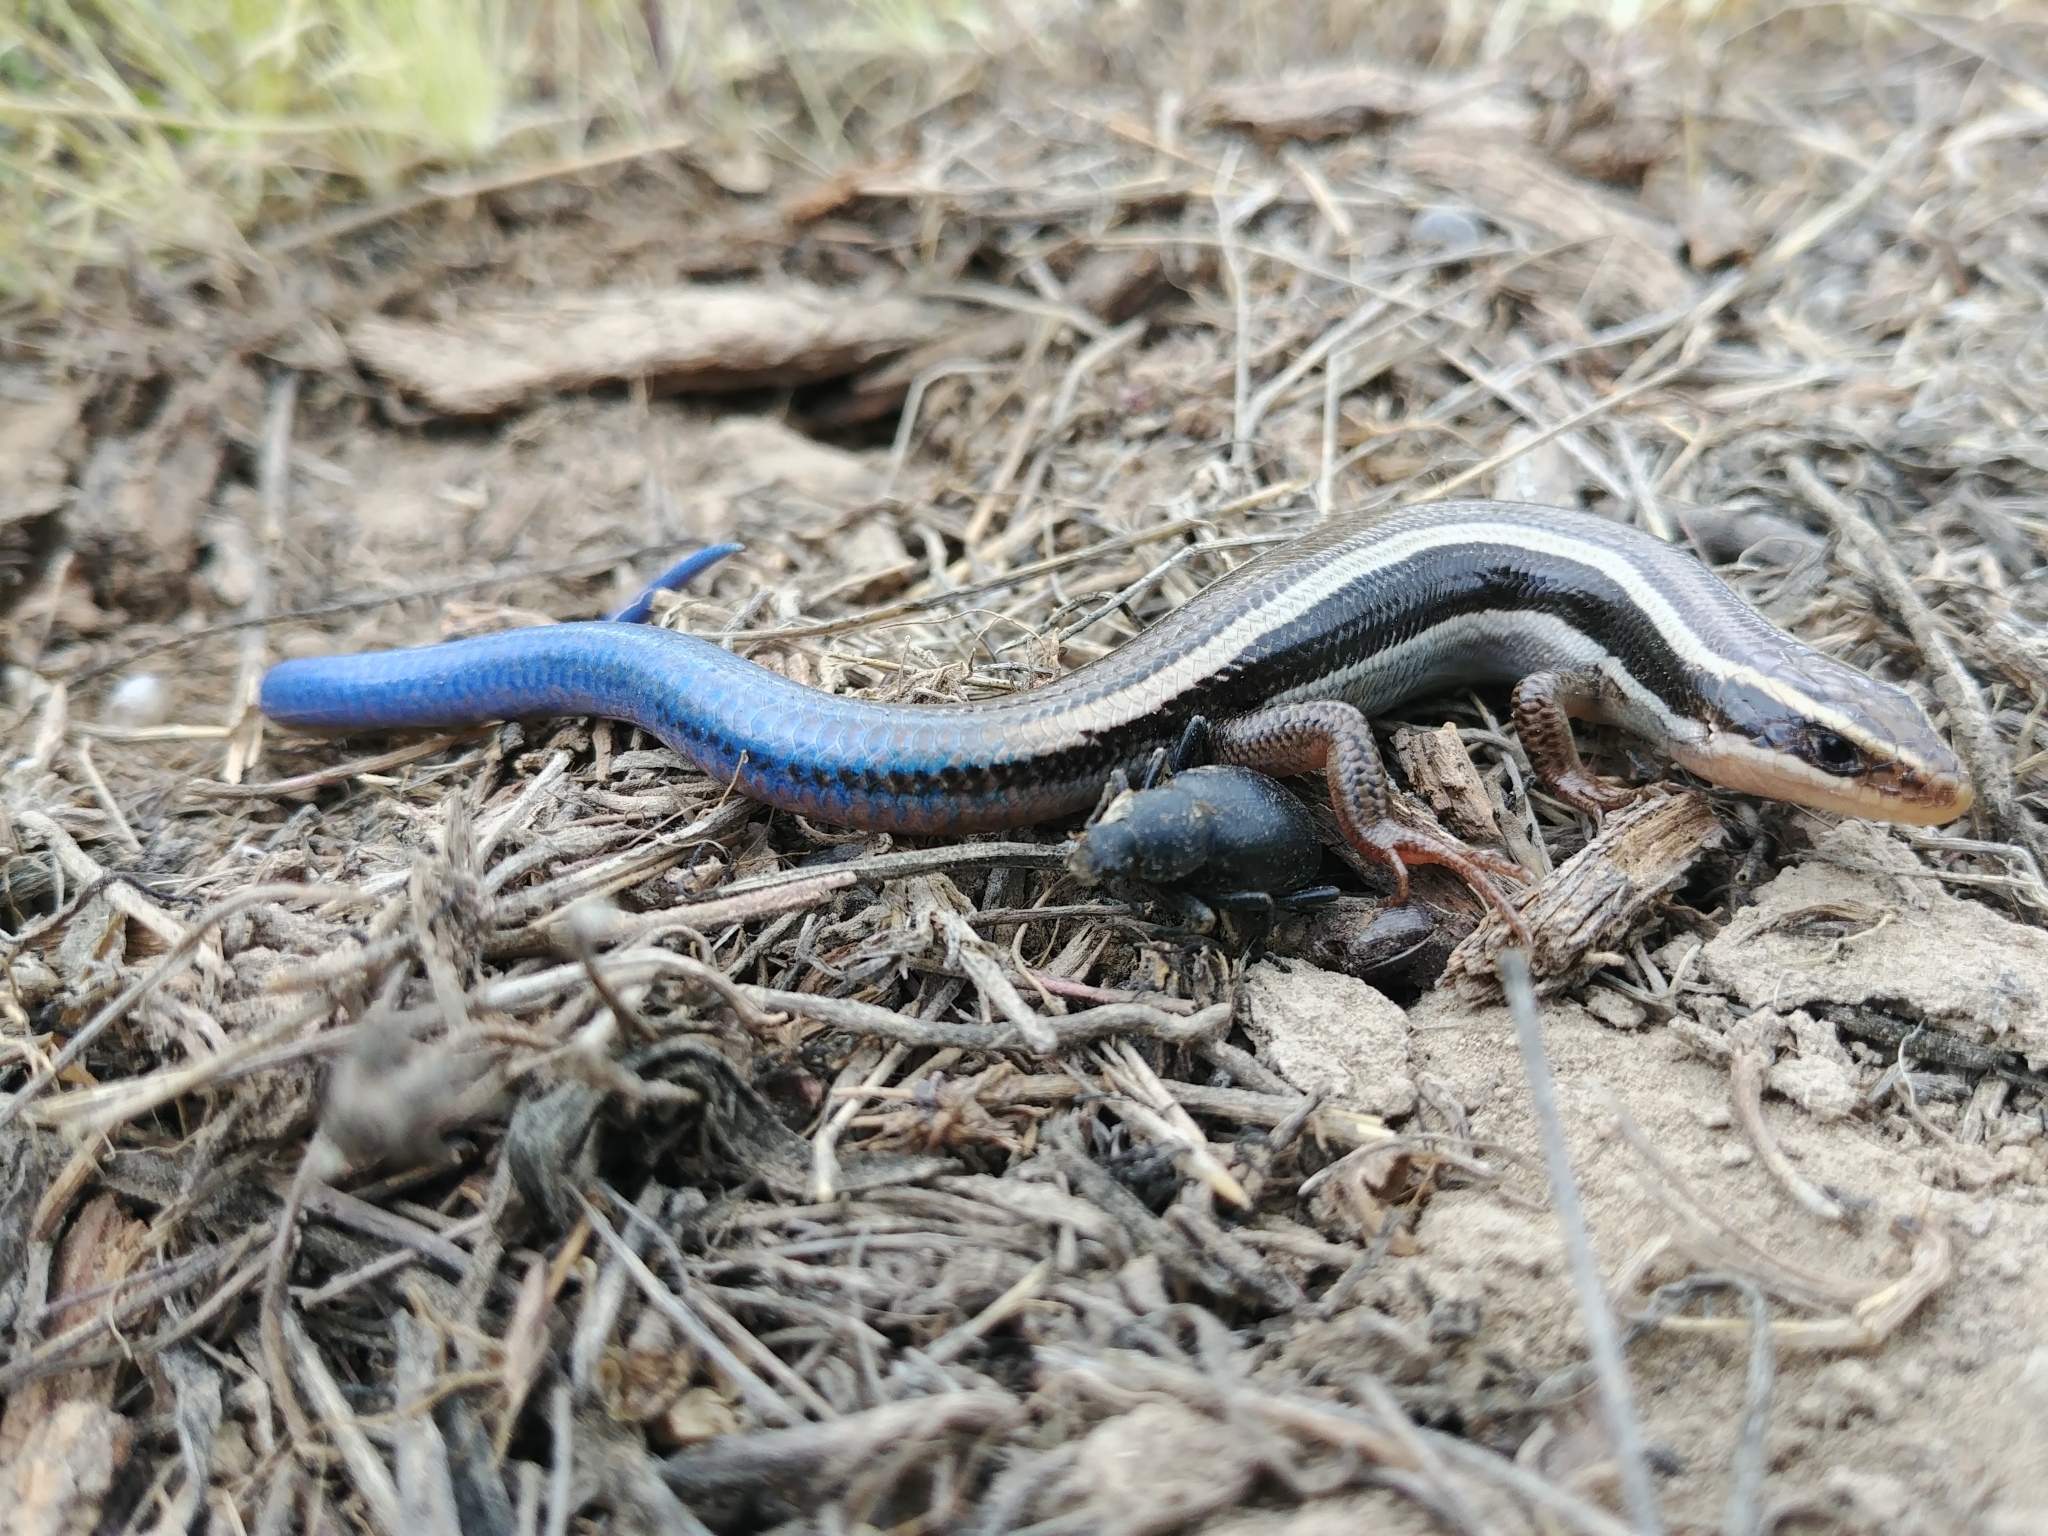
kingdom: Animalia
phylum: Chordata
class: Squamata
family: Scincidae
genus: Plestiodon
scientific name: Plestiodon skiltonianus
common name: Coronado island skink [interparietalis]
